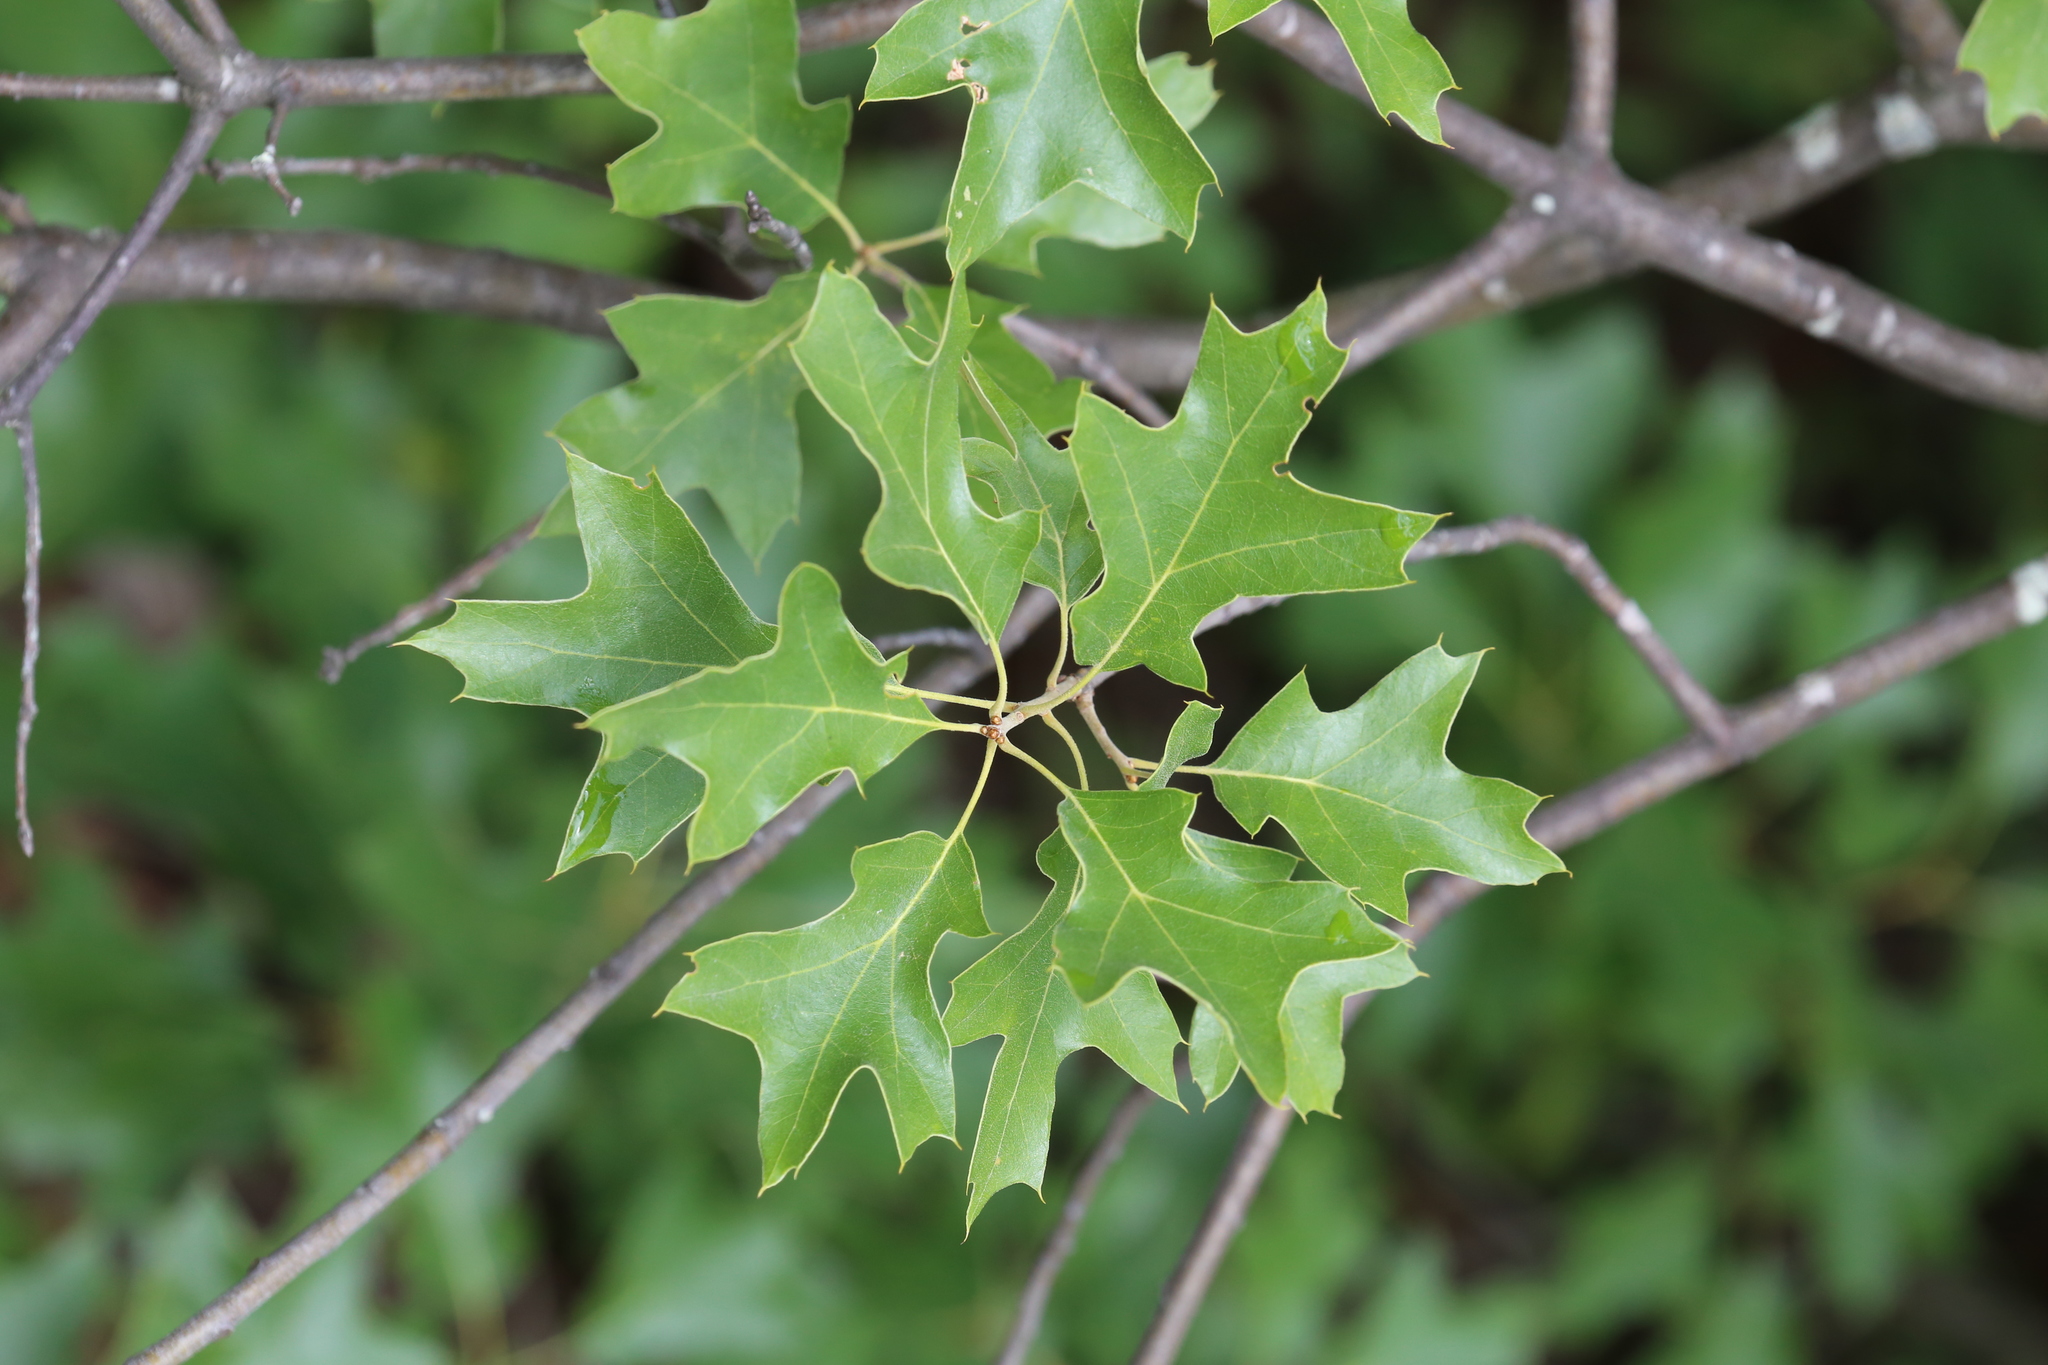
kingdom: Plantae
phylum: Tracheophyta
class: Magnoliopsida
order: Fagales
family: Fagaceae
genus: Quercus
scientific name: Quercus ilicifolia
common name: Bear oak
